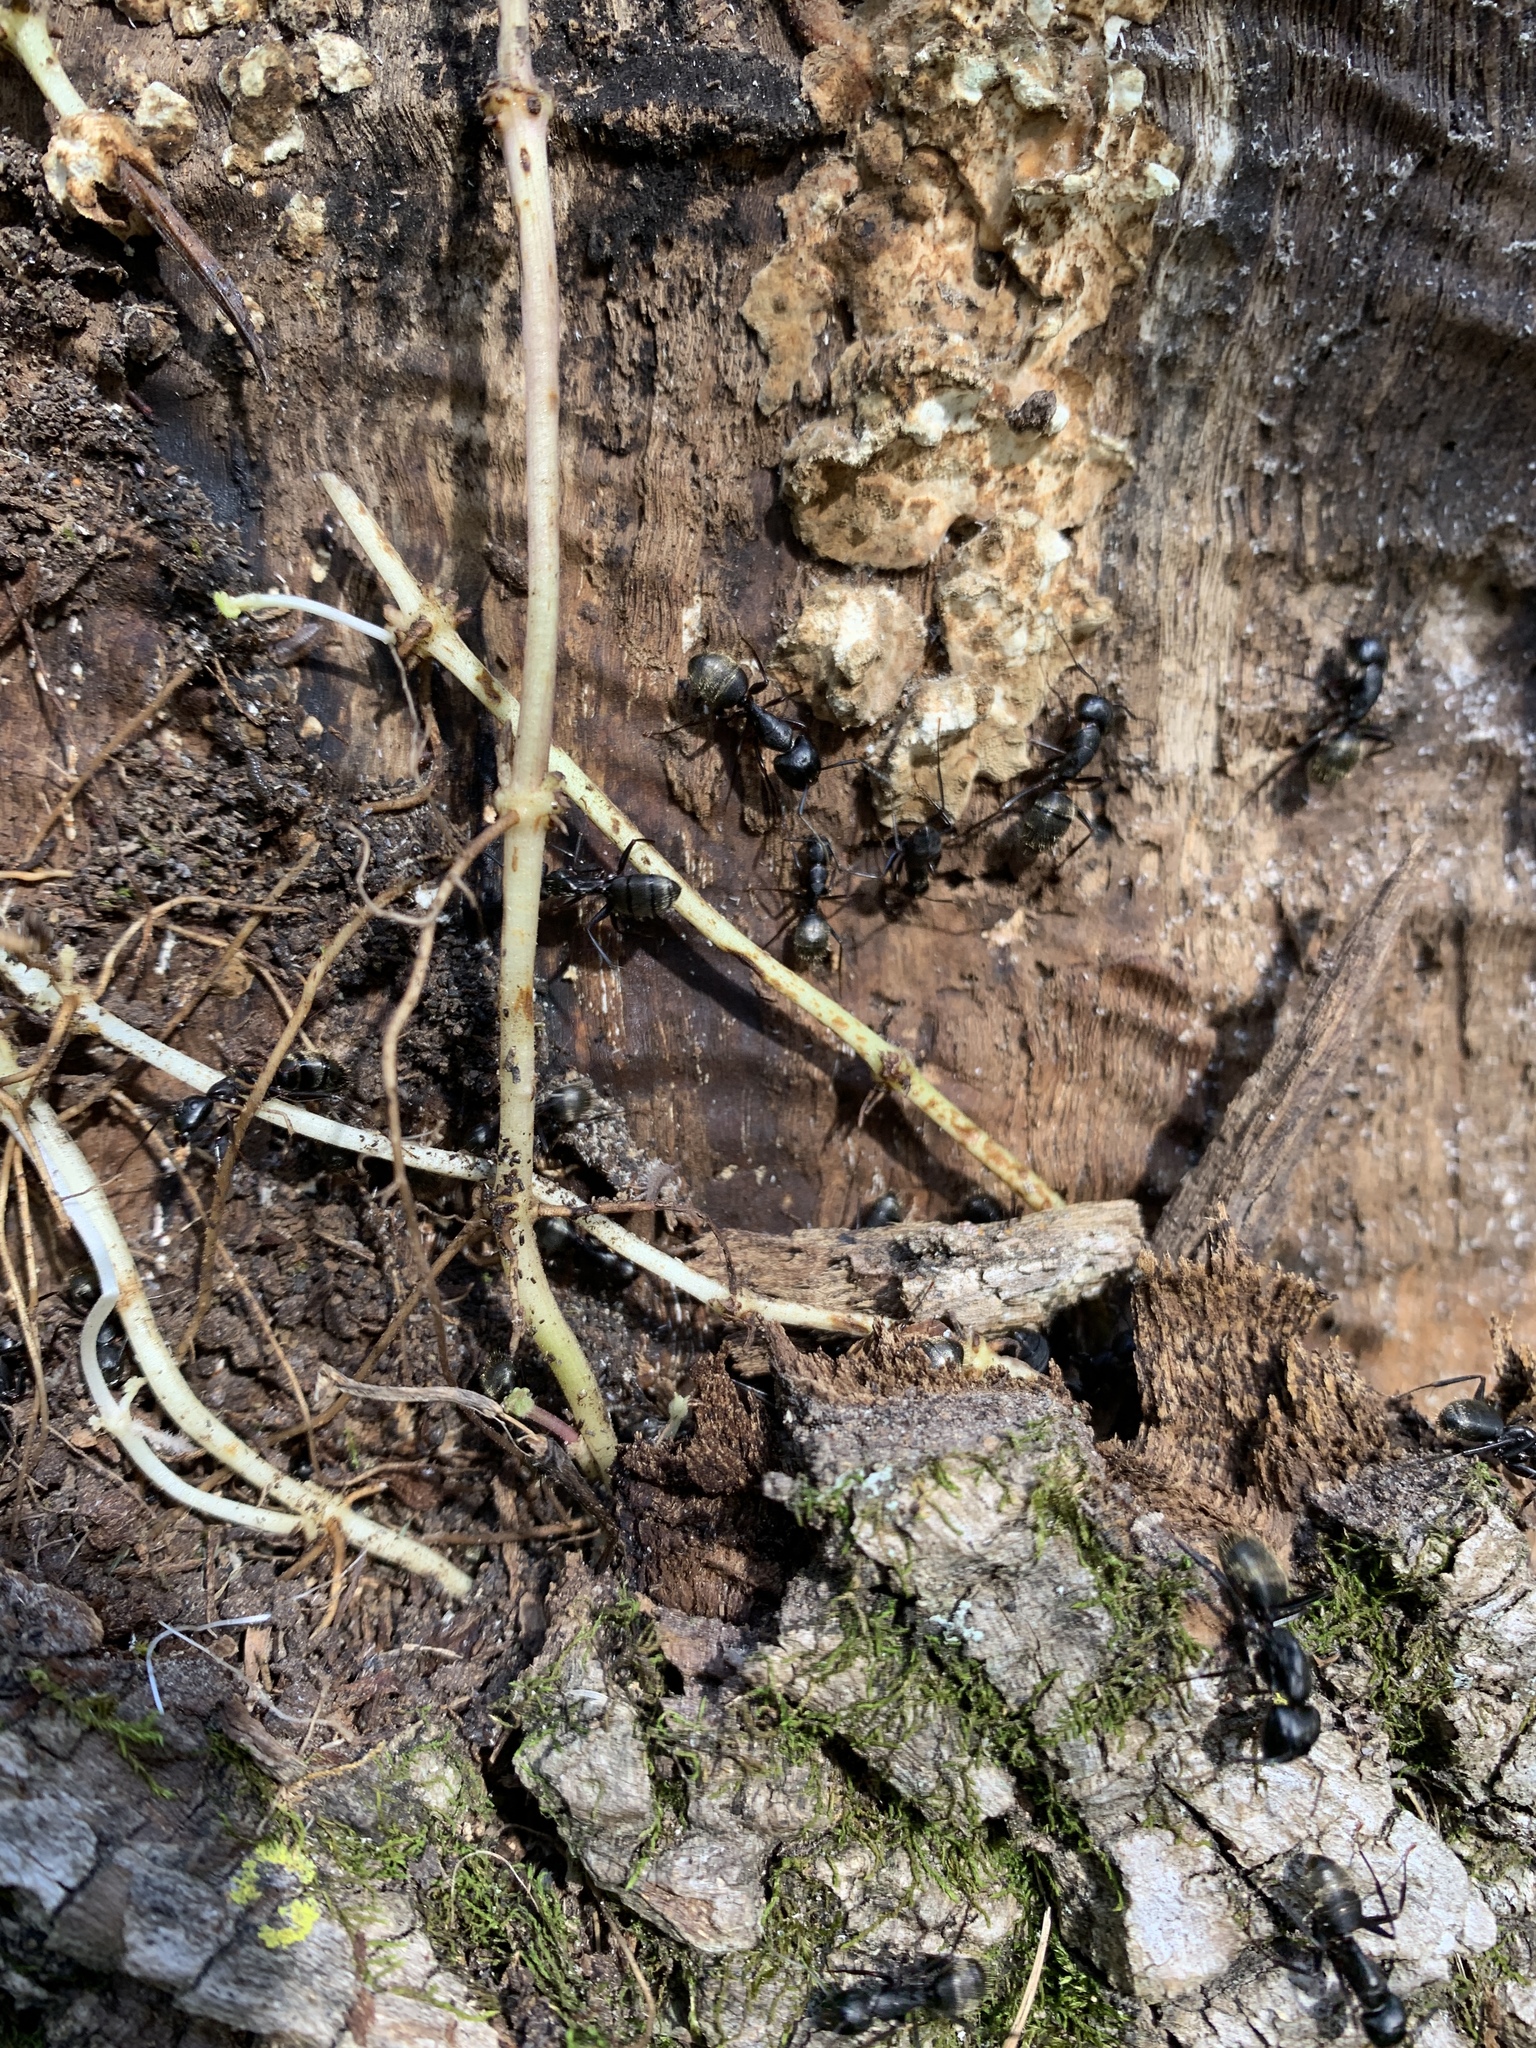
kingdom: Animalia
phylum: Arthropoda
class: Insecta
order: Hymenoptera
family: Formicidae
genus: Camponotus
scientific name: Camponotus pennsylvanicus
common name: Black carpenter ant
